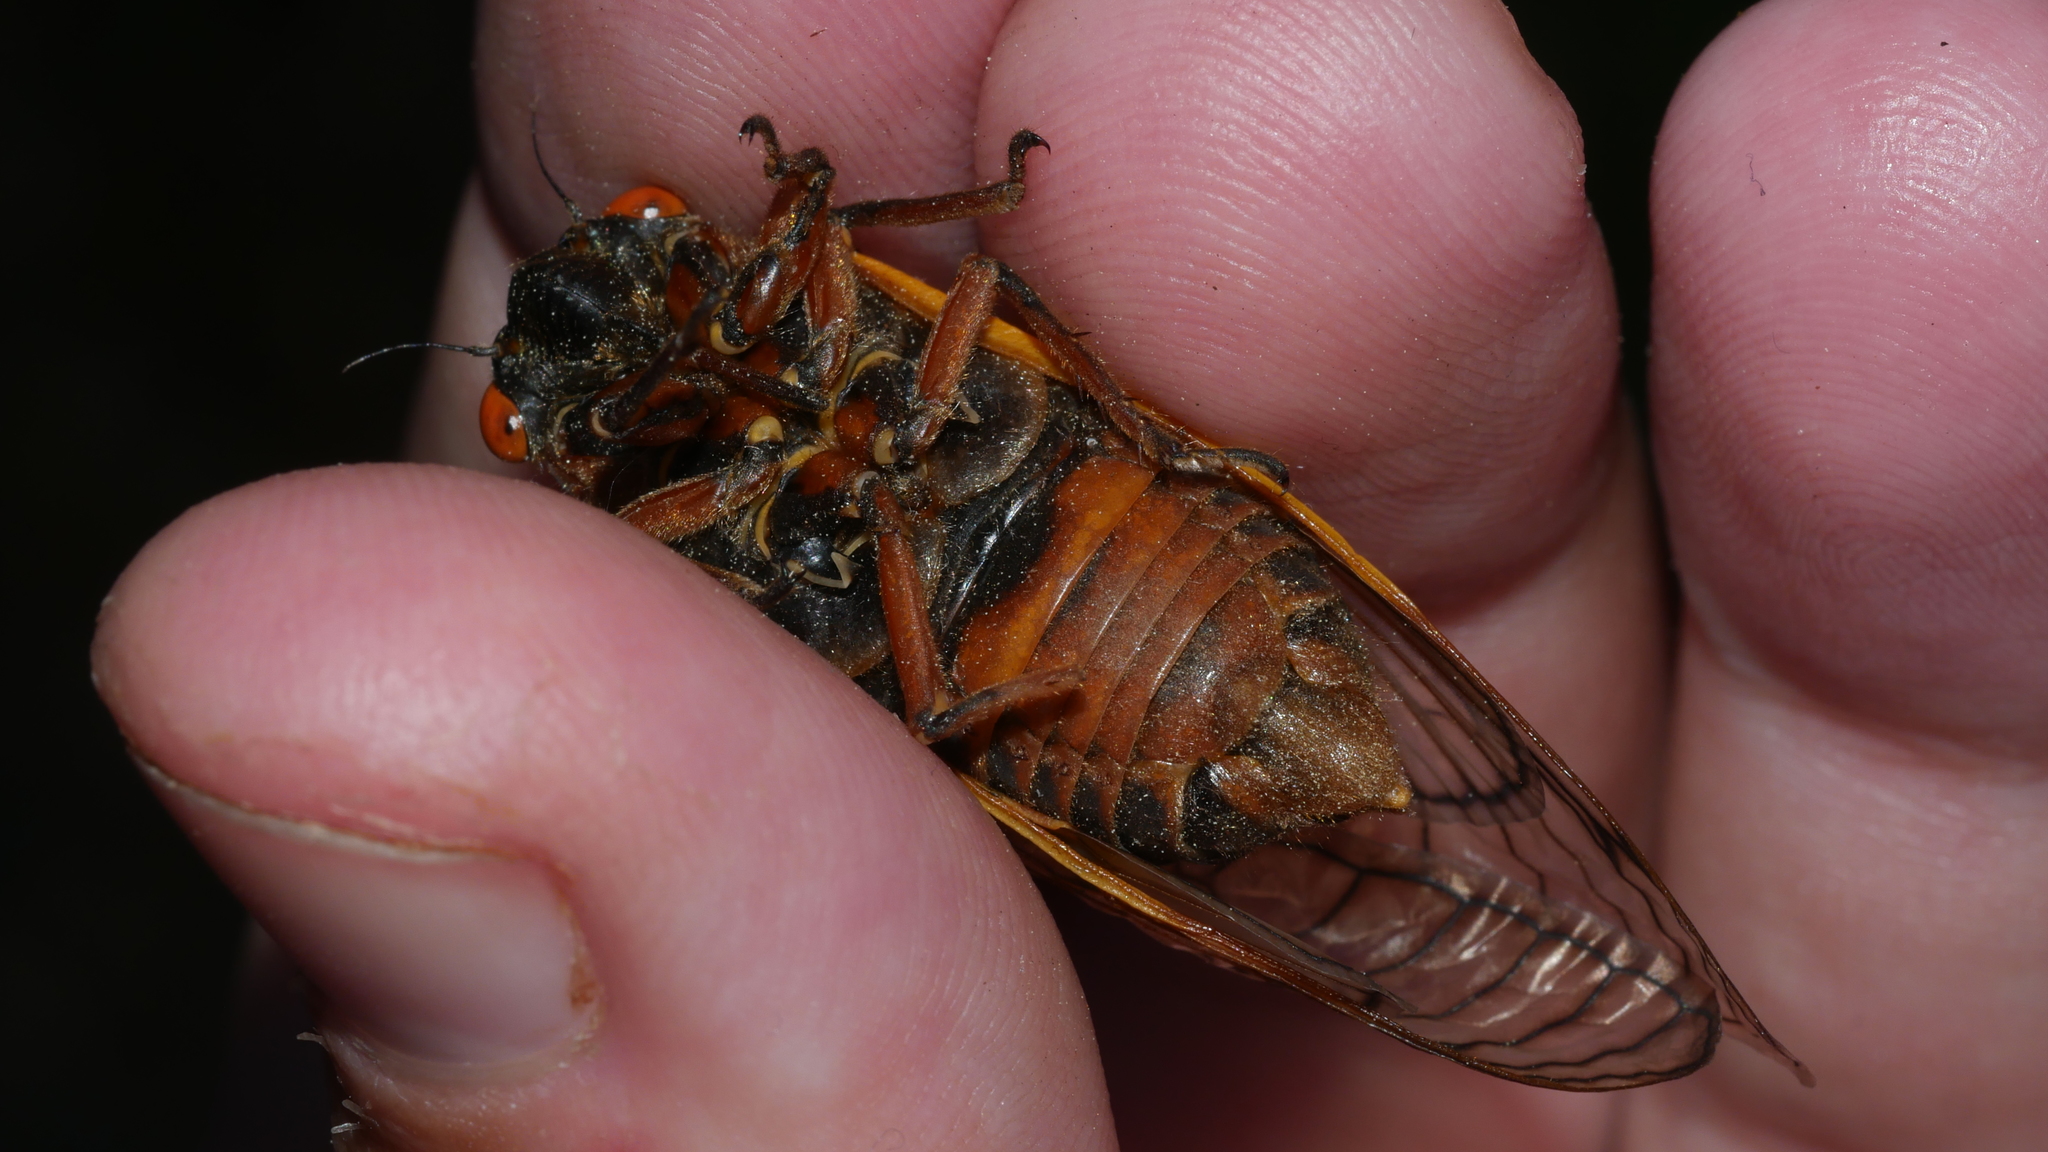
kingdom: Animalia
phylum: Arthropoda
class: Insecta
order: Hemiptera
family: Cicadidae
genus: Magicicada
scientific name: Magicicada septendecim
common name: Periodical cicada
